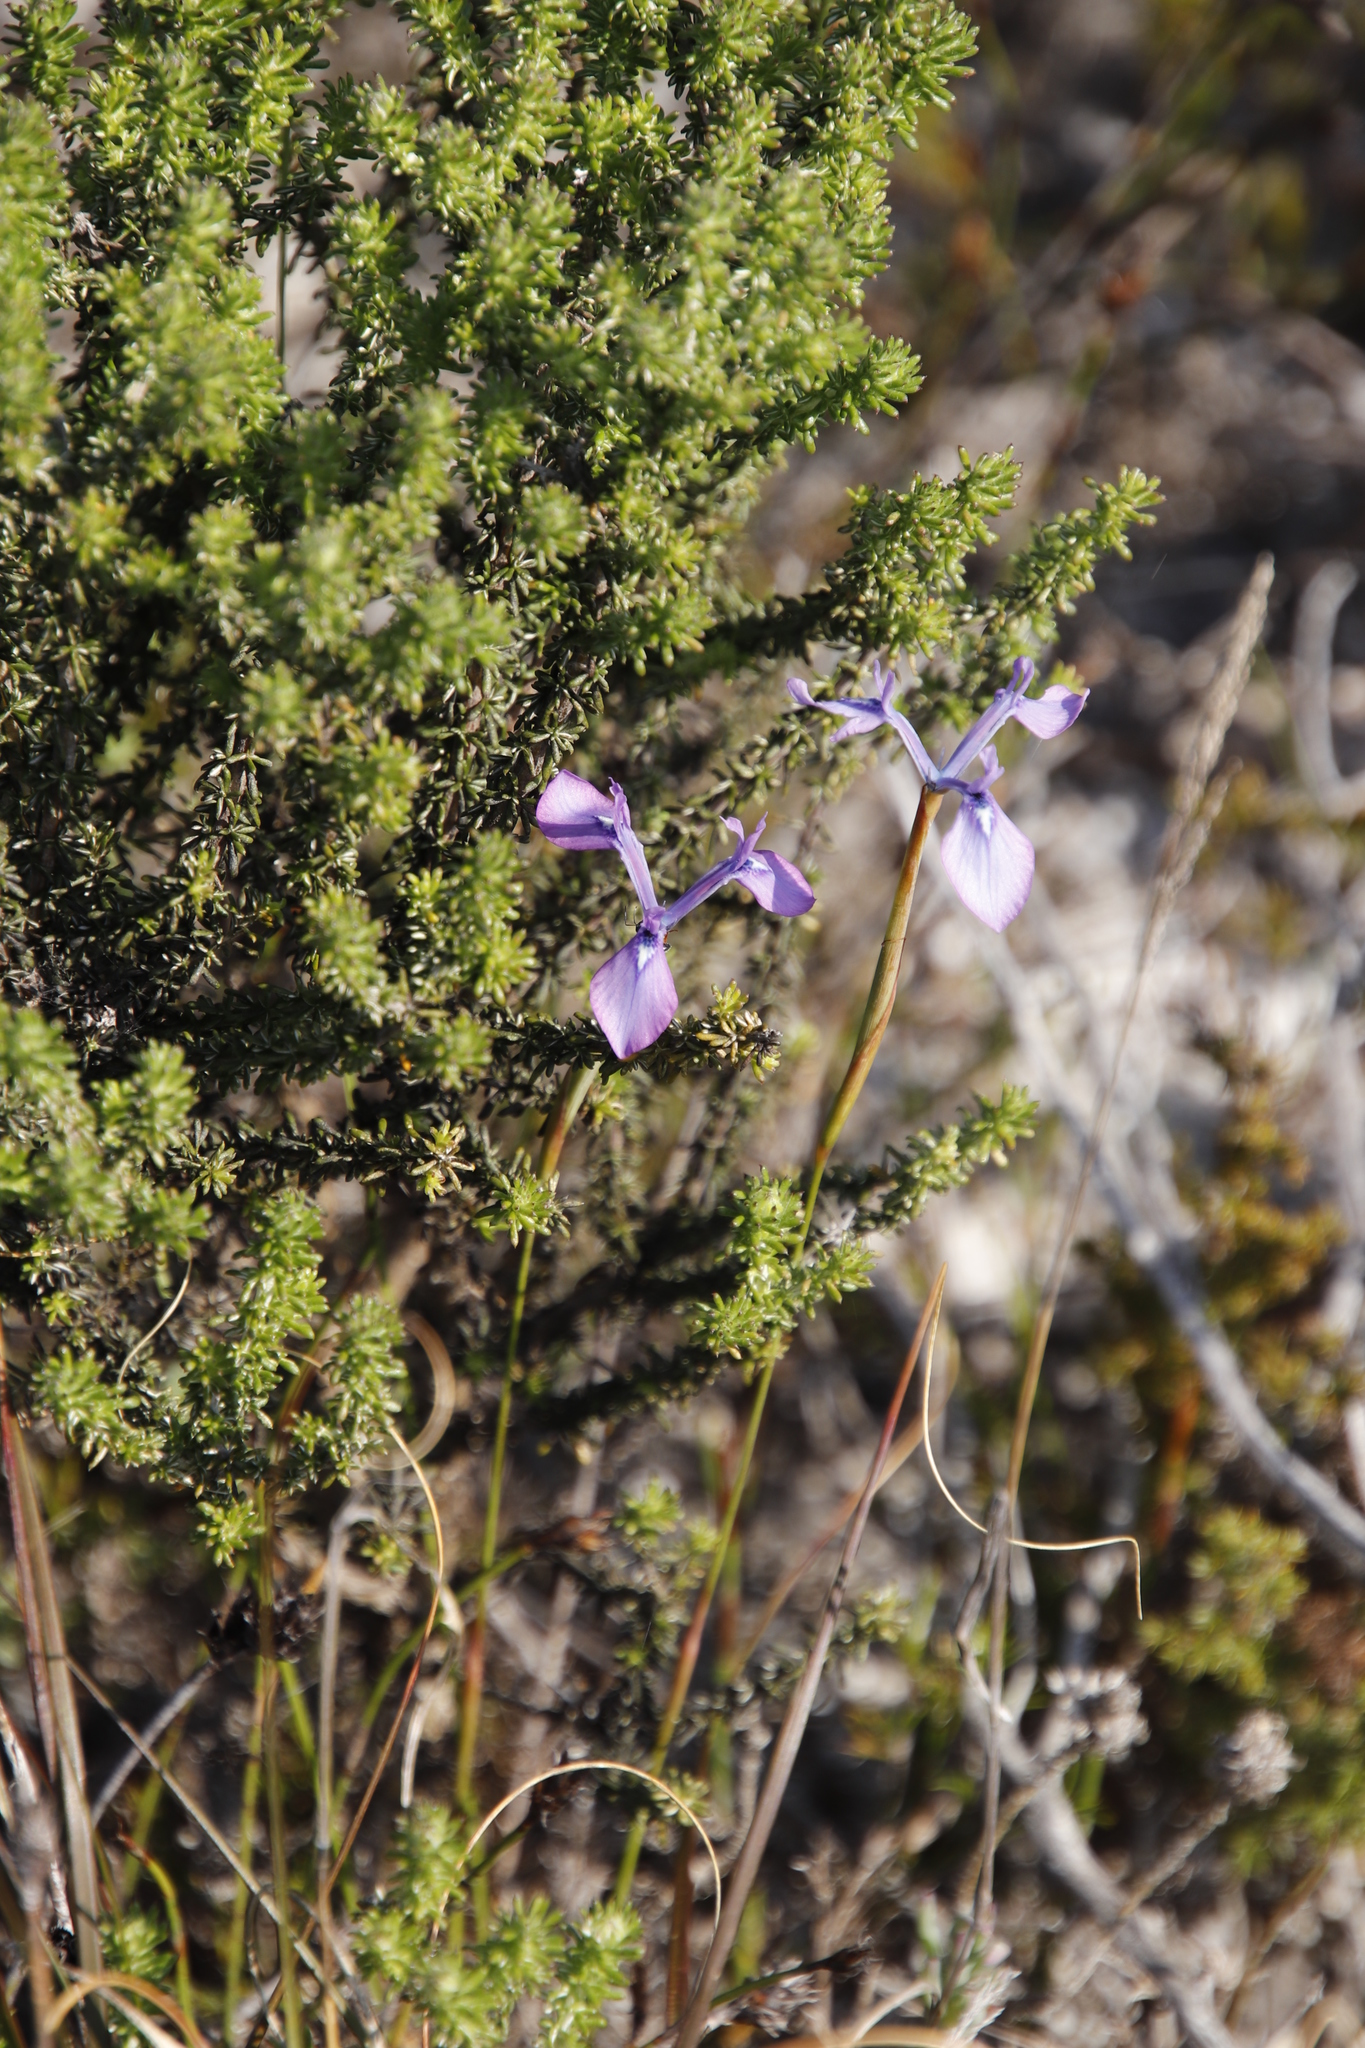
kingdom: Plantae
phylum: Tracheophyta
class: Liliopsida
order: Asparagales
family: Iridaceae
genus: Moraea
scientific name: Moraea tripetala
